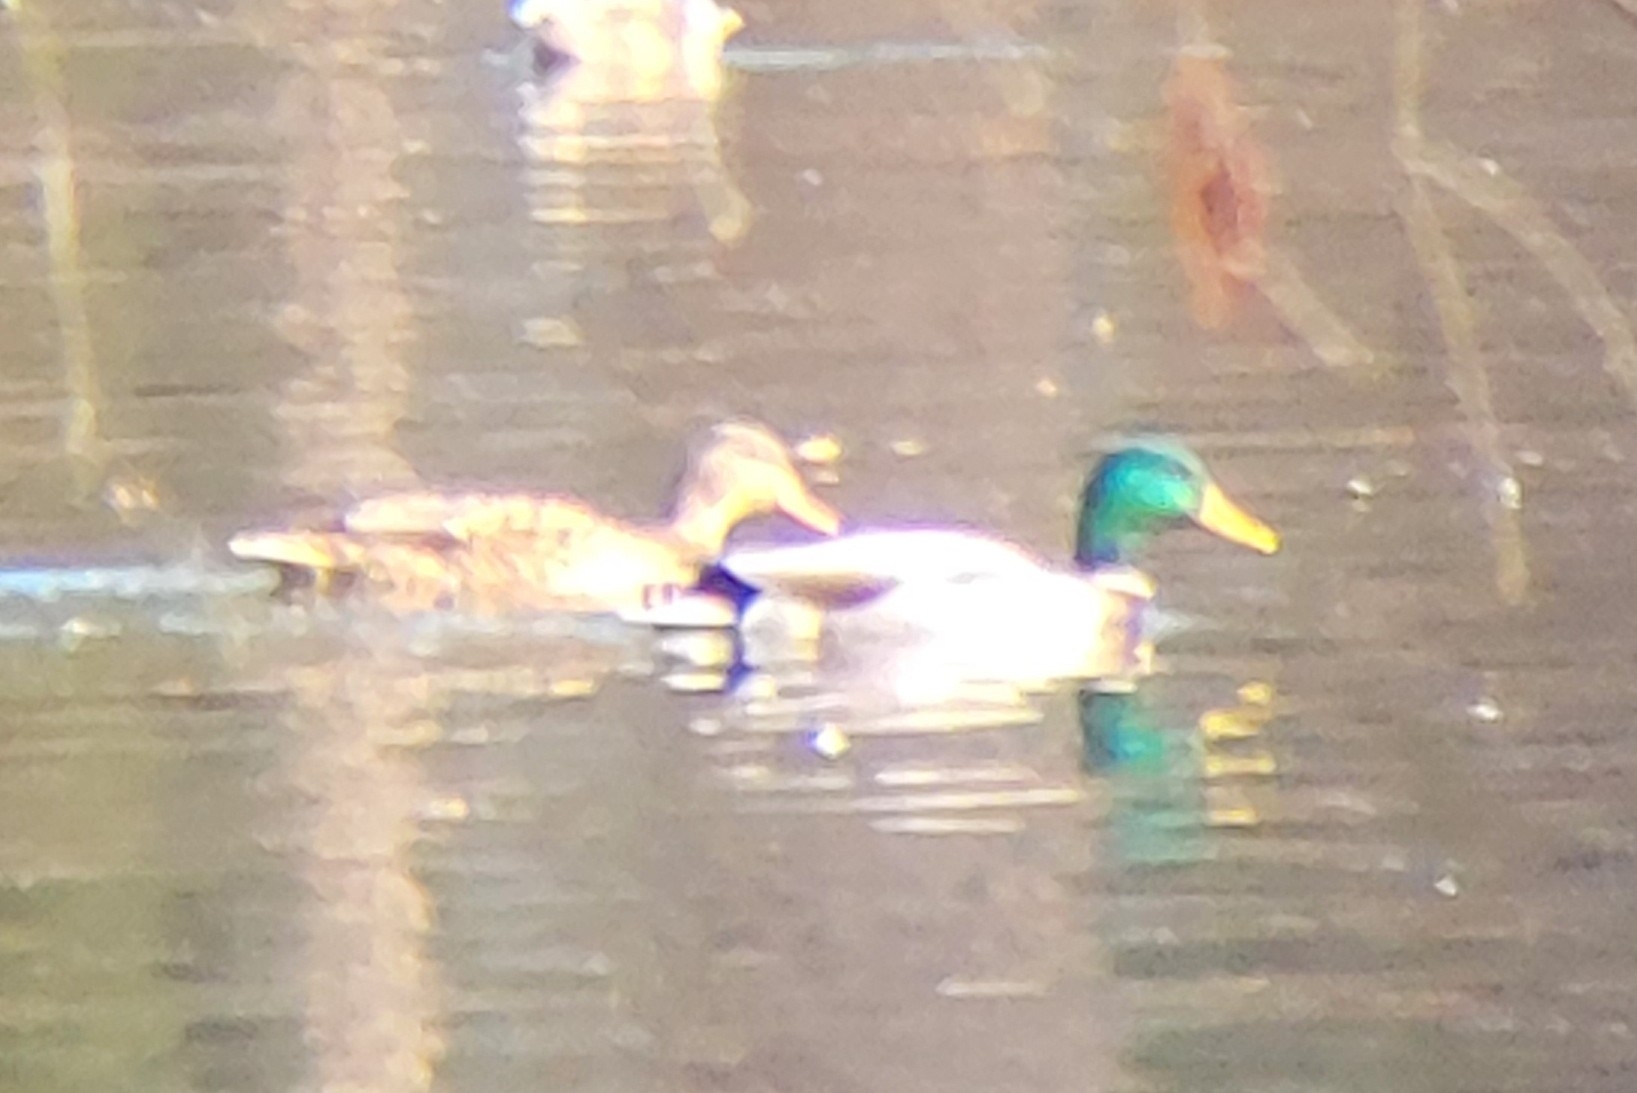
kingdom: Animalia
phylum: Chordata
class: Aves
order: Anseriformes
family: Anatidae
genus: Anas
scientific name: Anas platyrhynchos
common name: Mallard
